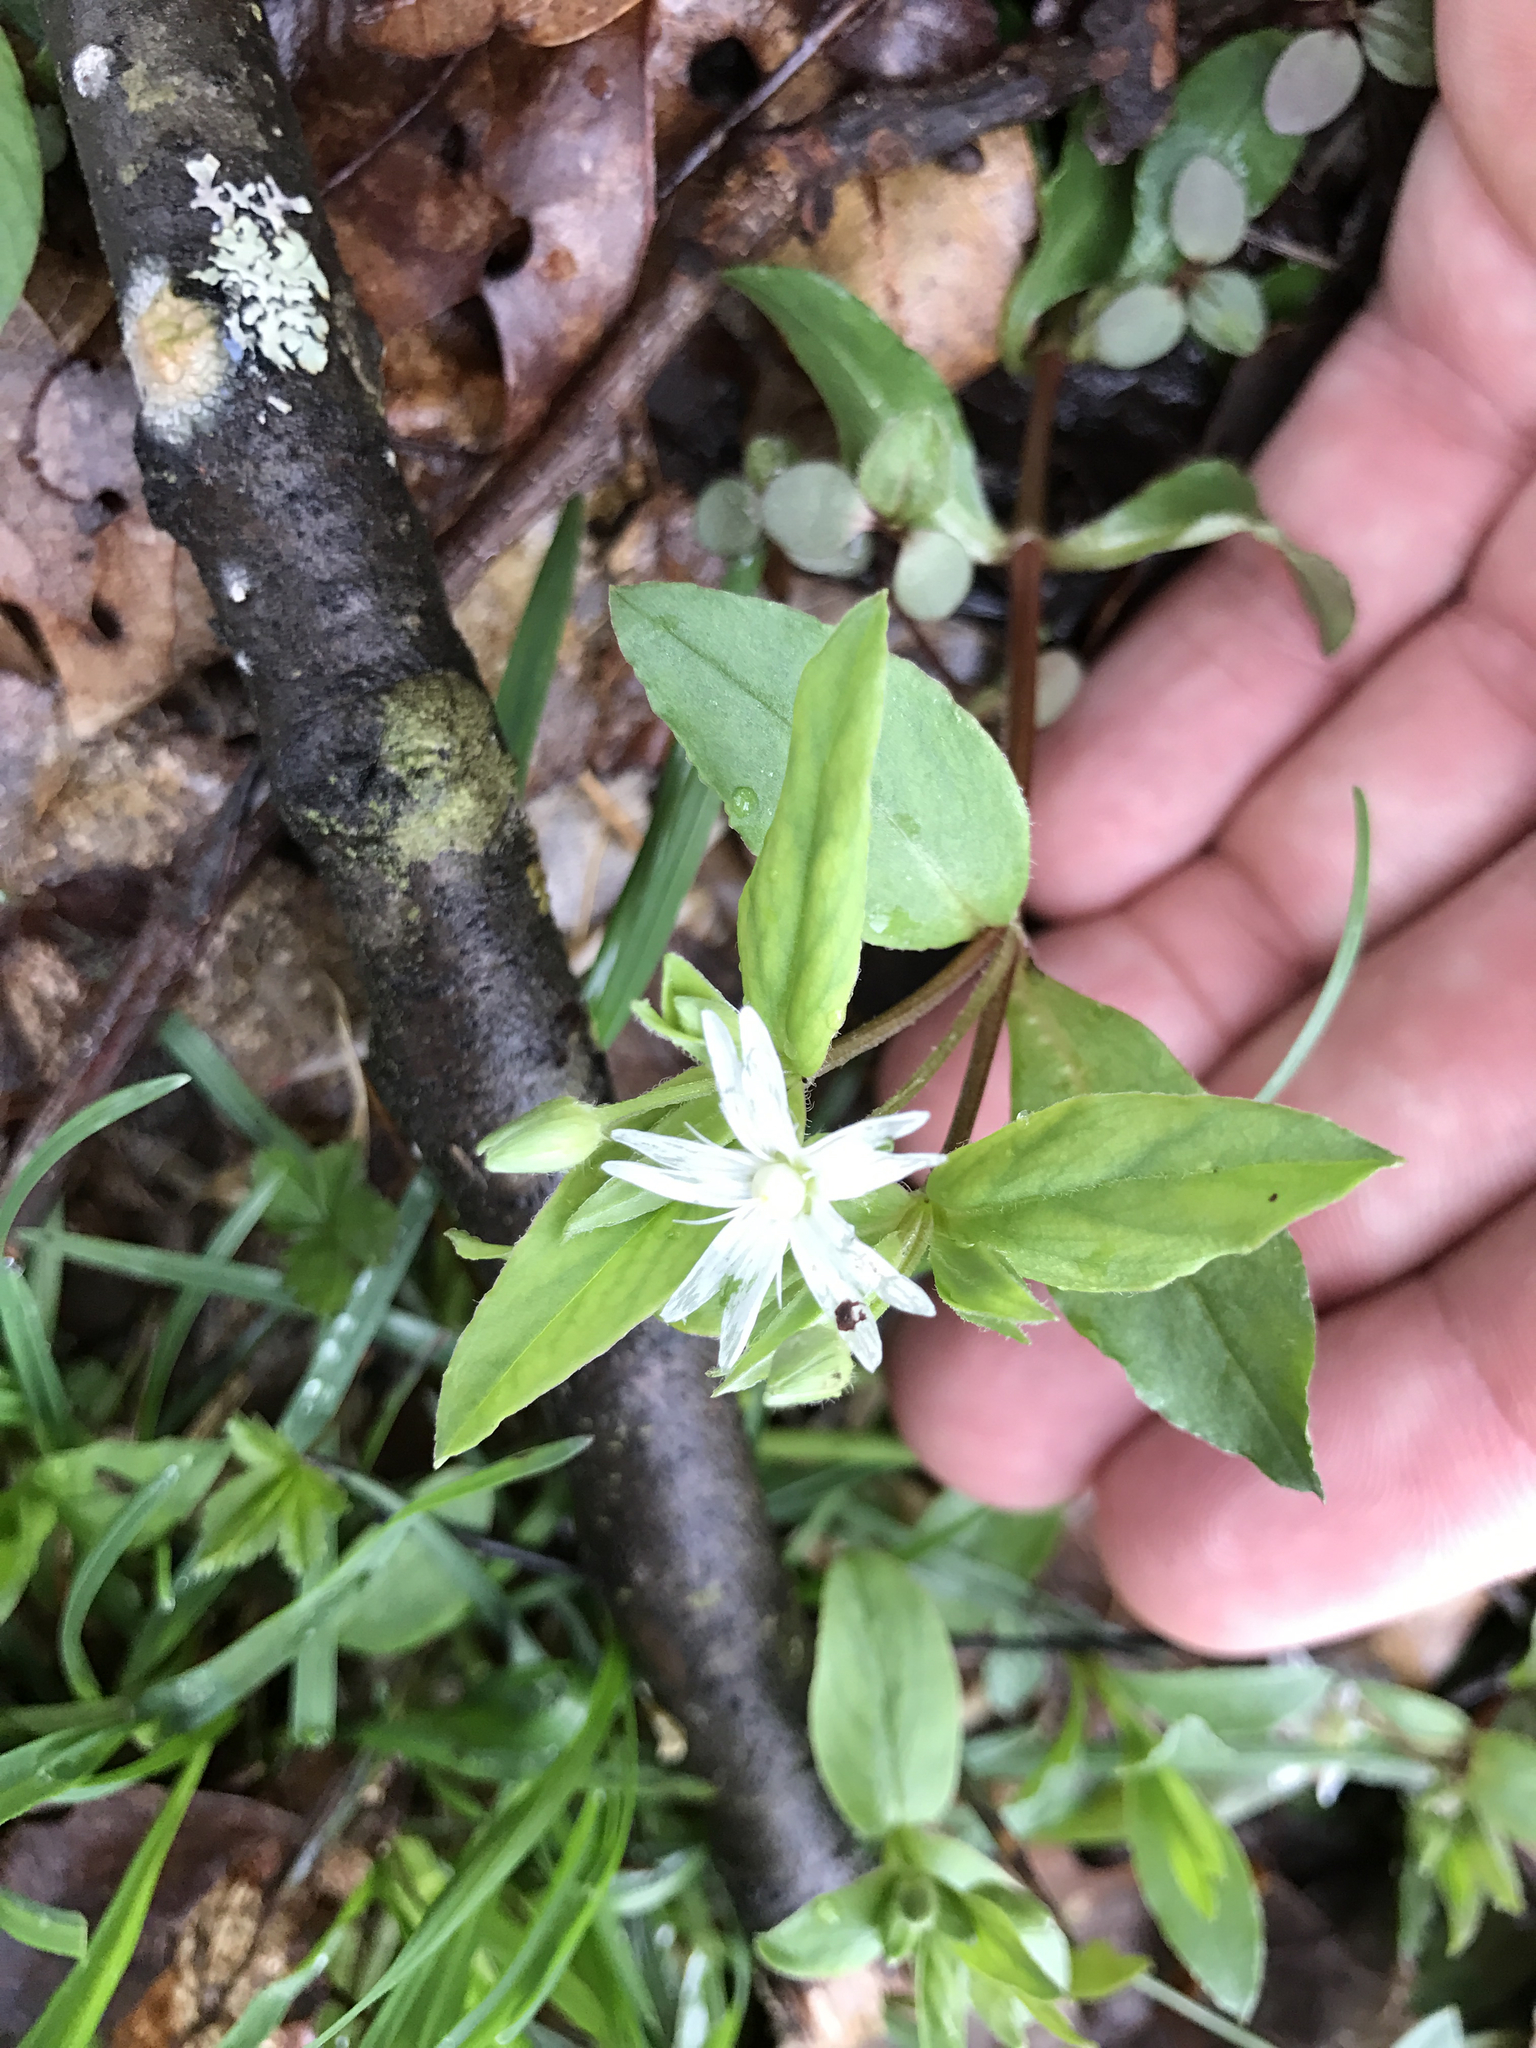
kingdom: Plantae
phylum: Tracheophyta
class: Magnoliopsida
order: Caryophyllales
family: Caryophyllaceae
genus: Stellaria
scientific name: Stellaria pubera
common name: Star chickweed
